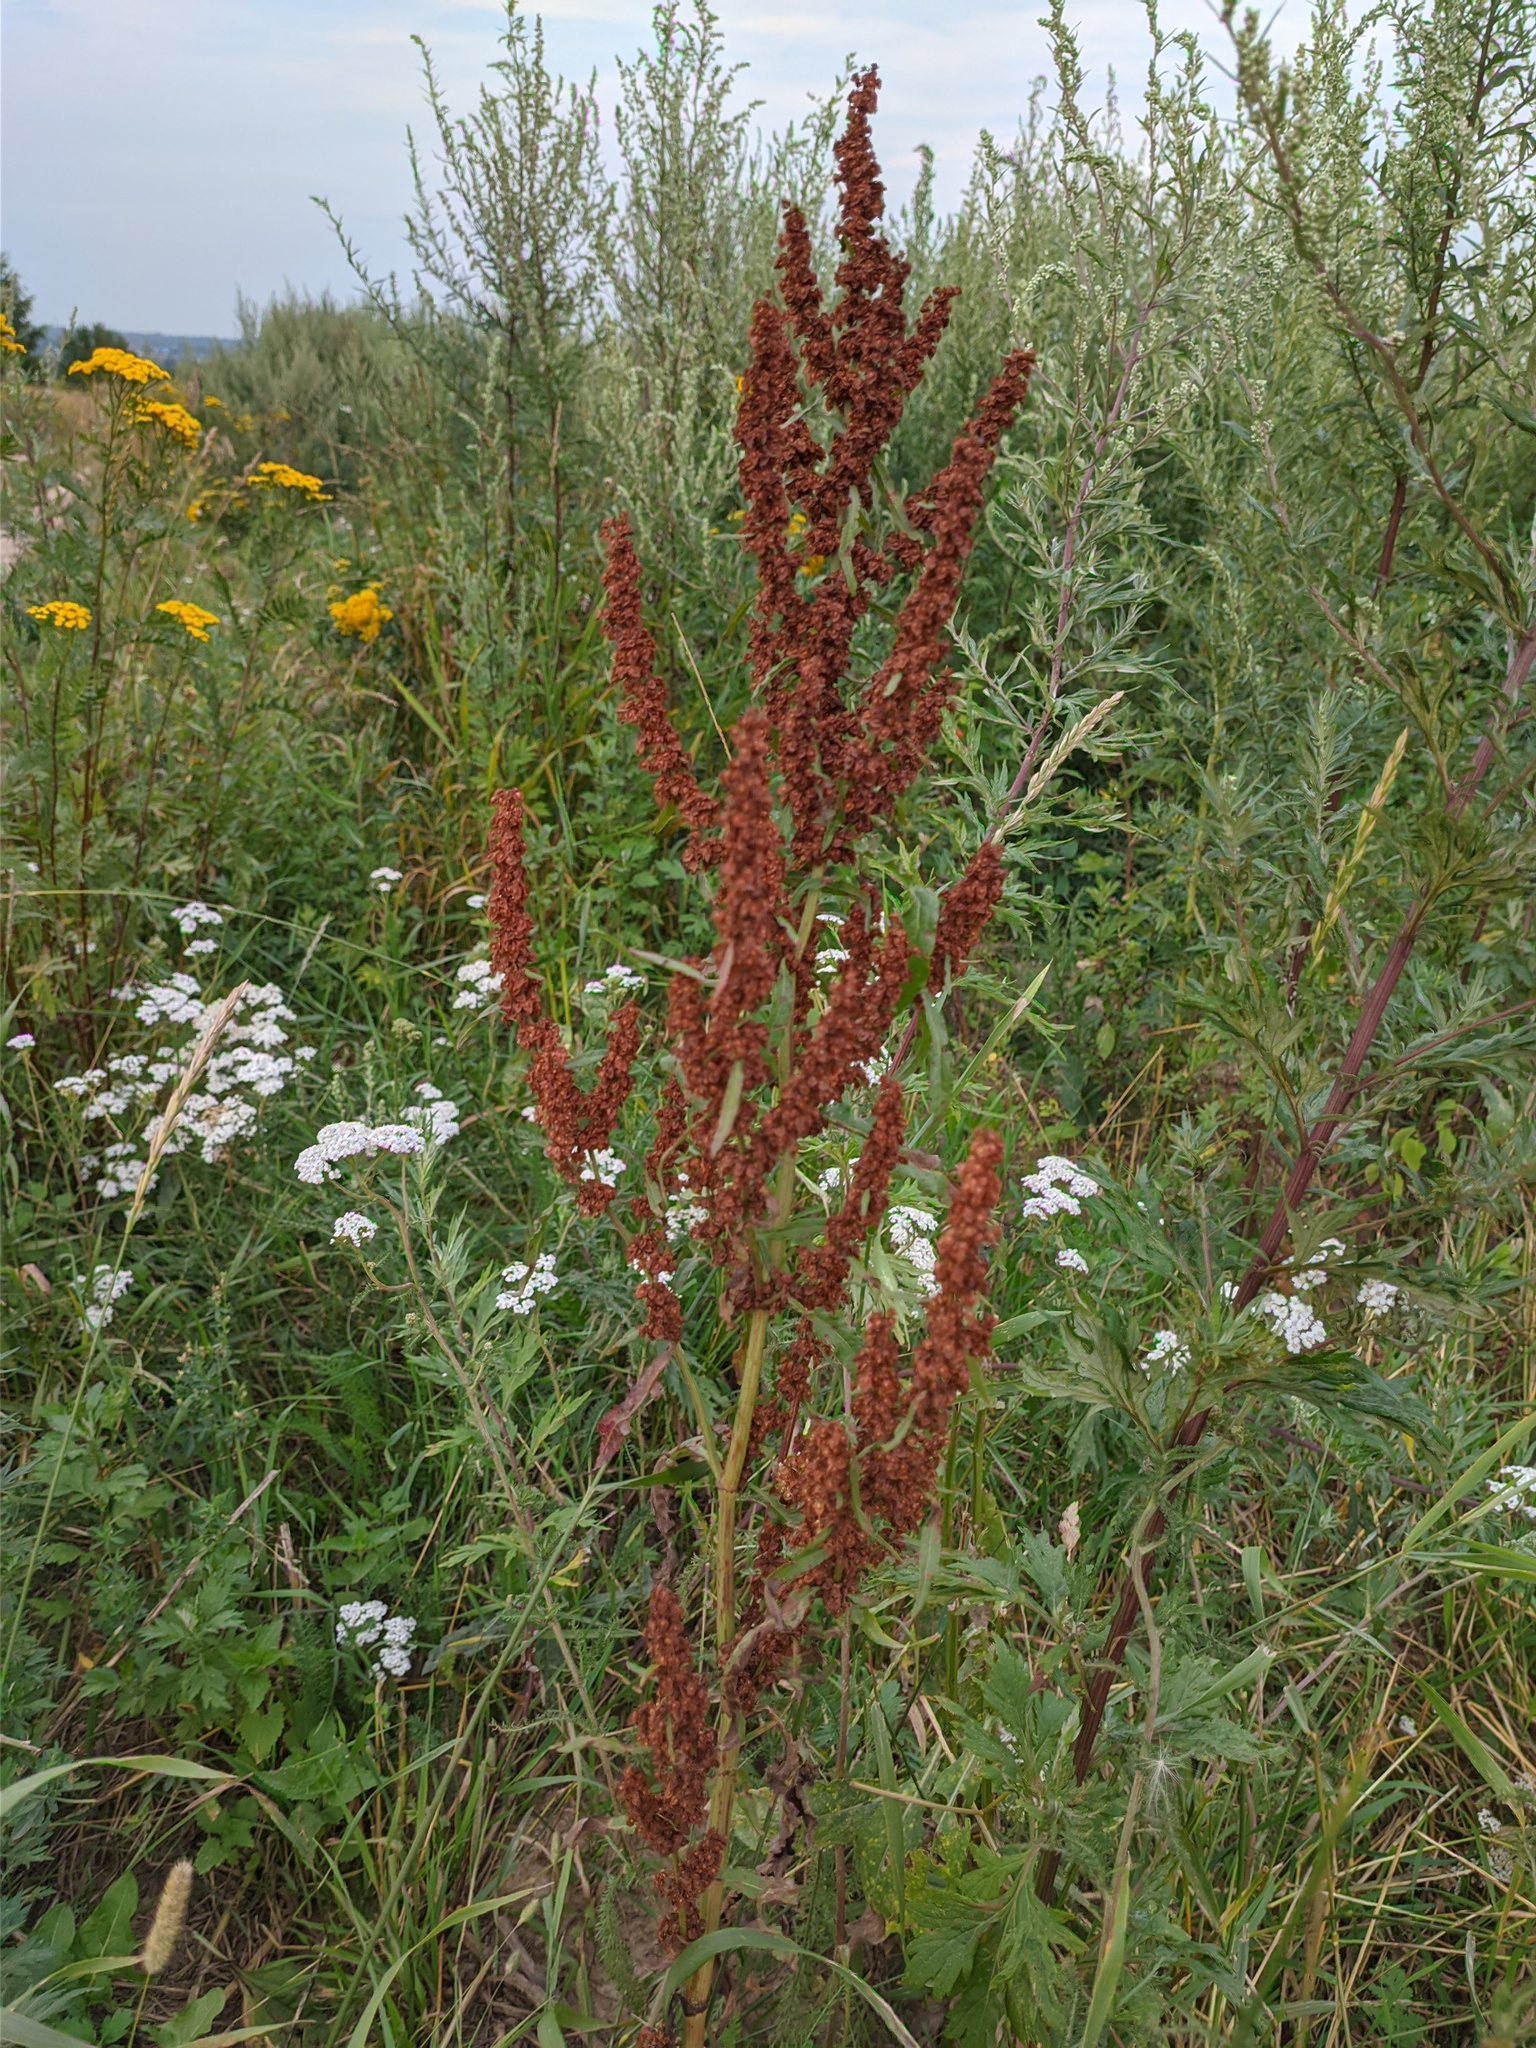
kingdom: Plantae
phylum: Tracheophyta
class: Magnoliopsida
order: Caryophyllales
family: Polygonaceae
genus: Rumex
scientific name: Rumex crispus
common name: Curled dock
